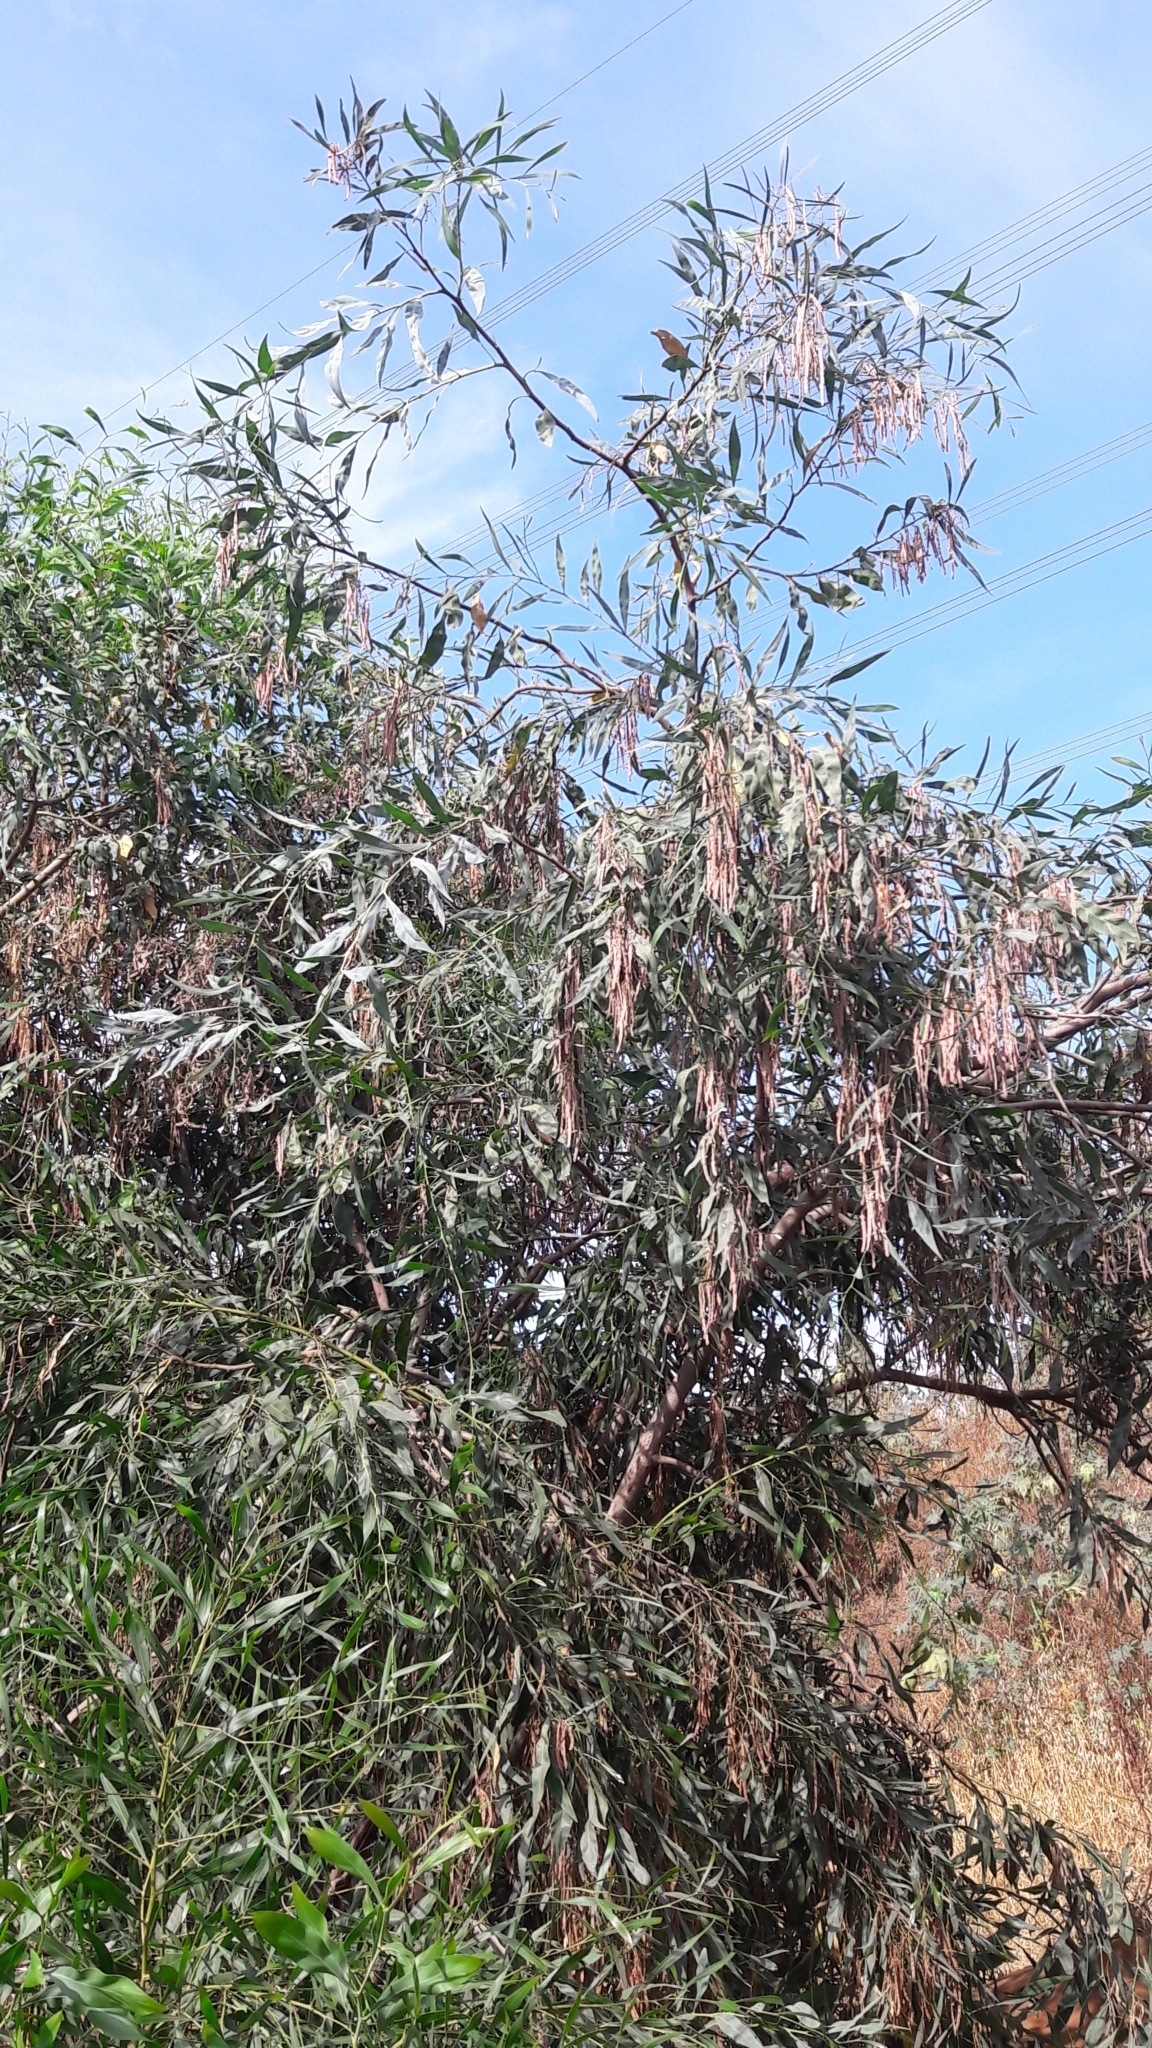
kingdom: Plantae
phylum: Tracheophyta
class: Magnoliopsida
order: Fabales
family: Fabaceae
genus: Acacia
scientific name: Acacia saligna
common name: Orange wattle
